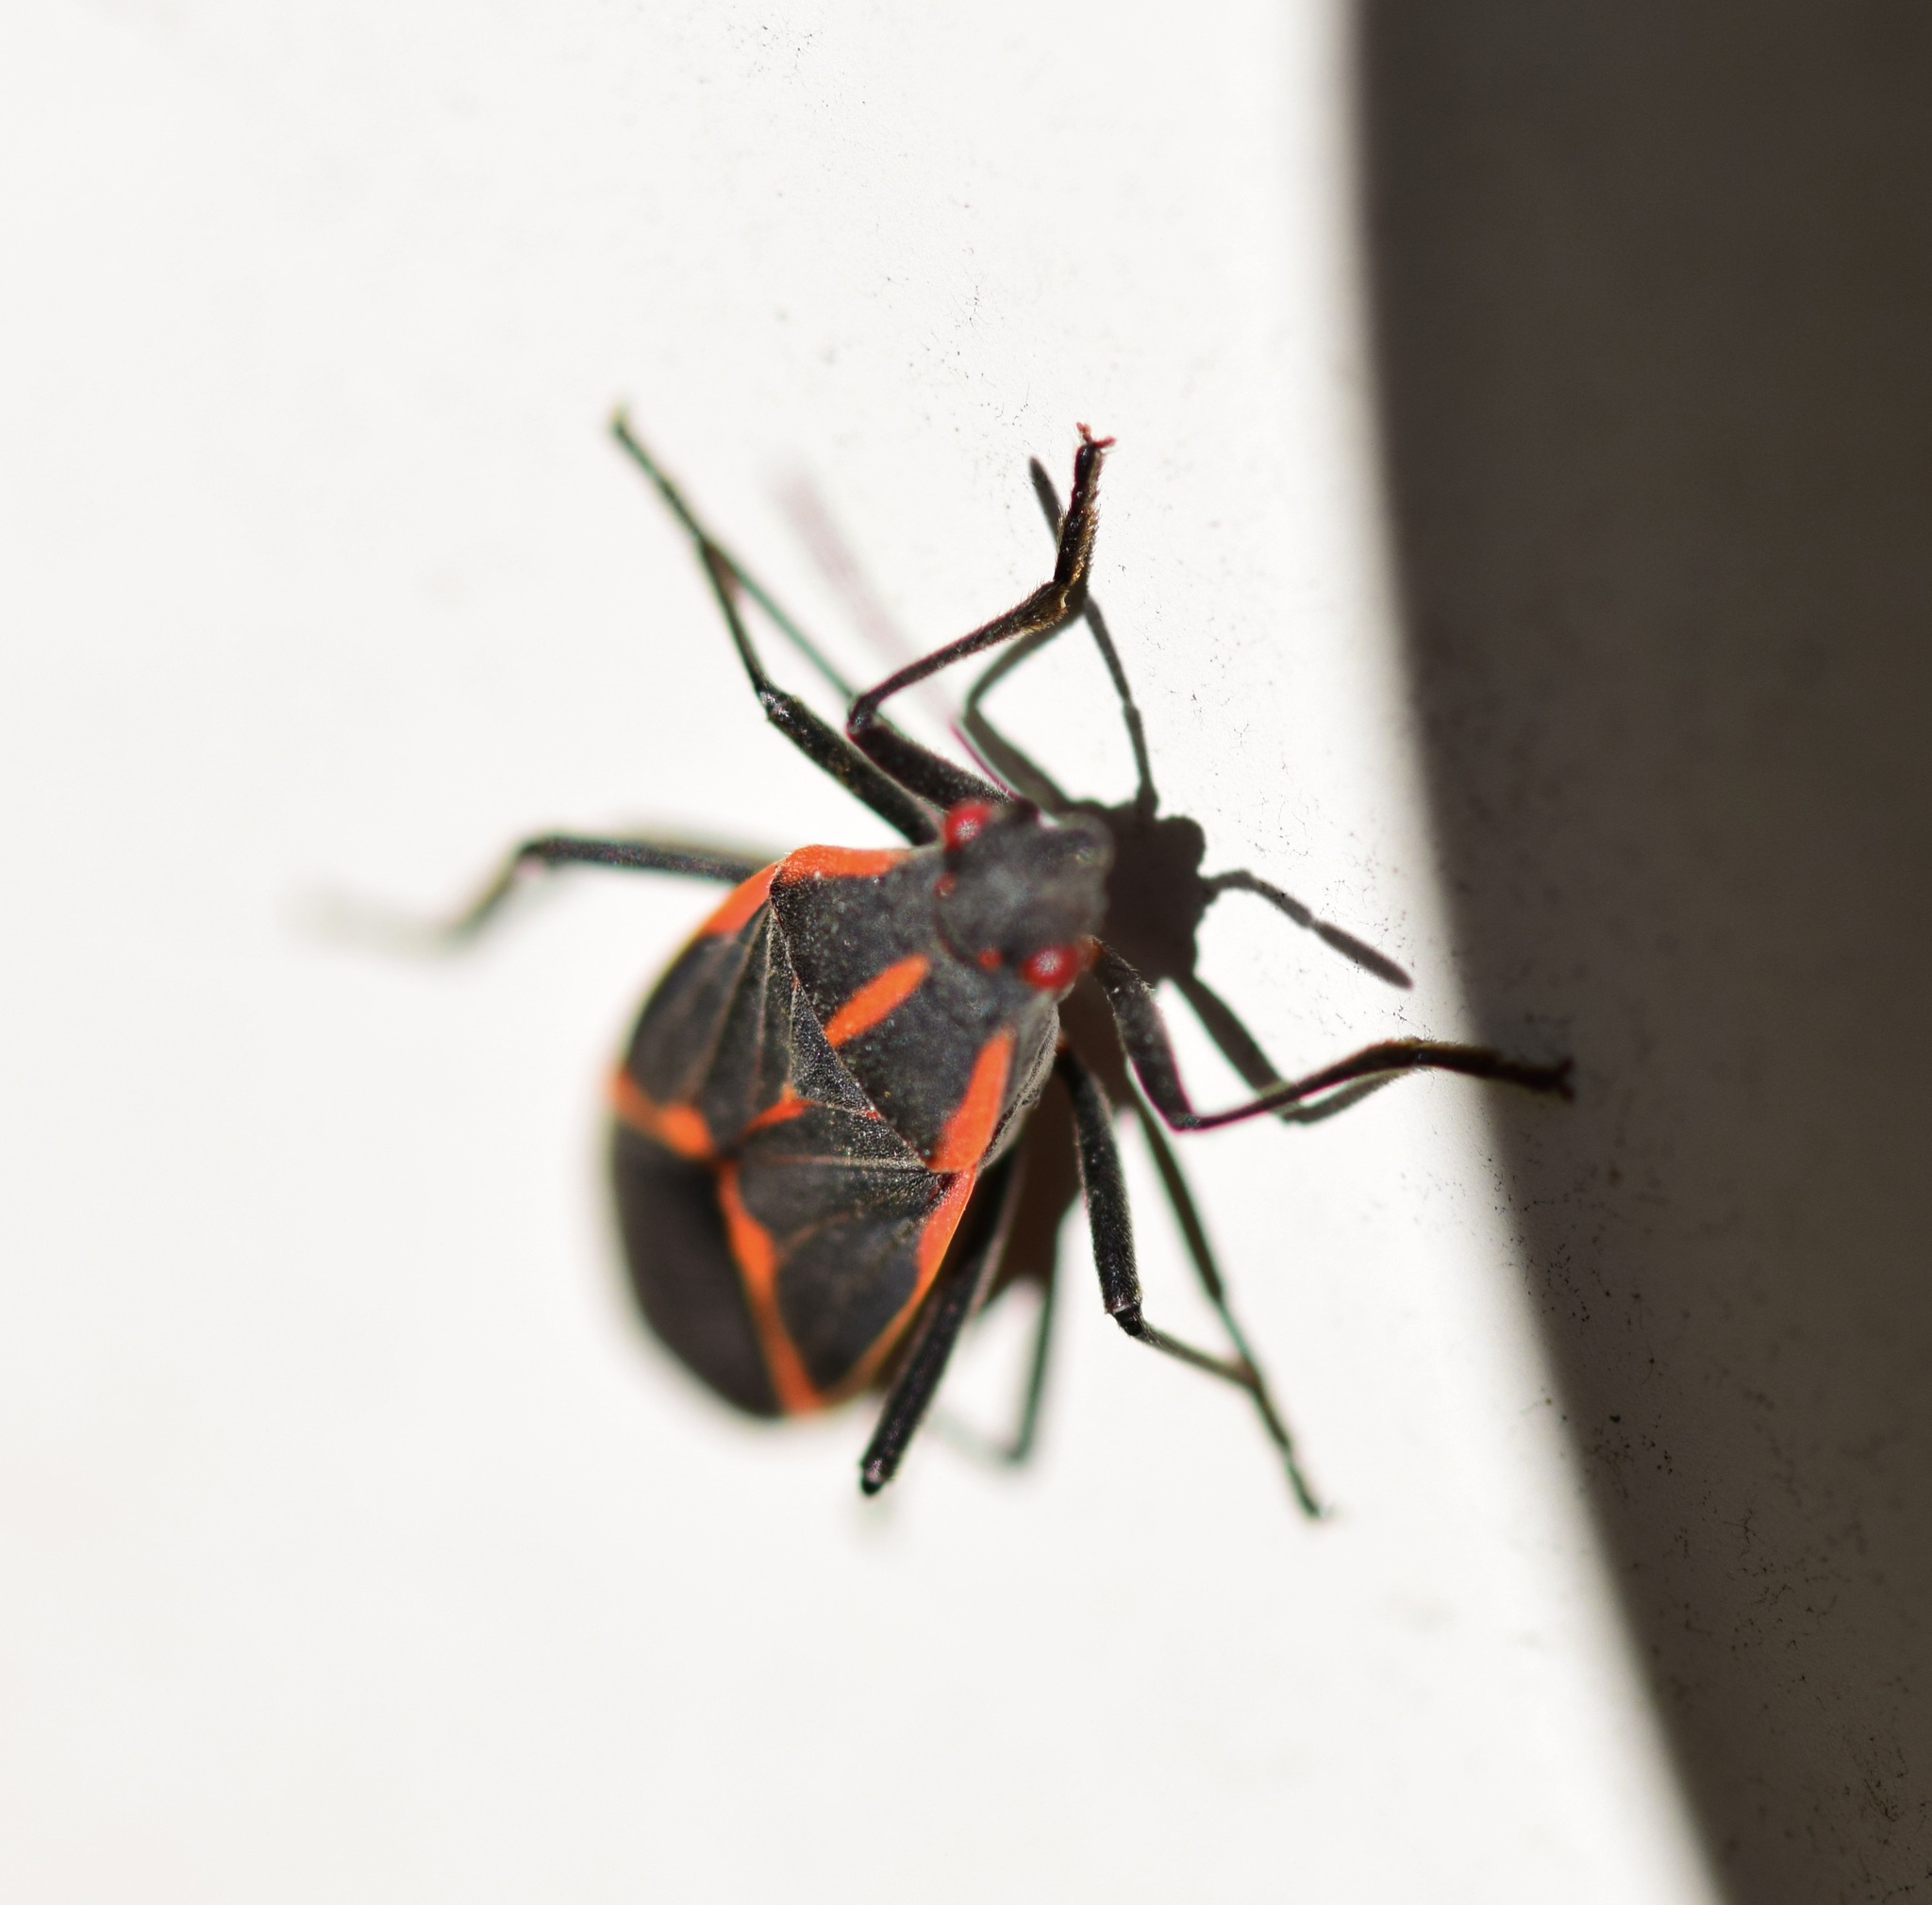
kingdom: Animalia
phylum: Arthropoda
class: Insecta
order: Hemiptera
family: Rhopalidae
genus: Boisea
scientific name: Boisea trivittata
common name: Boxelder bug
